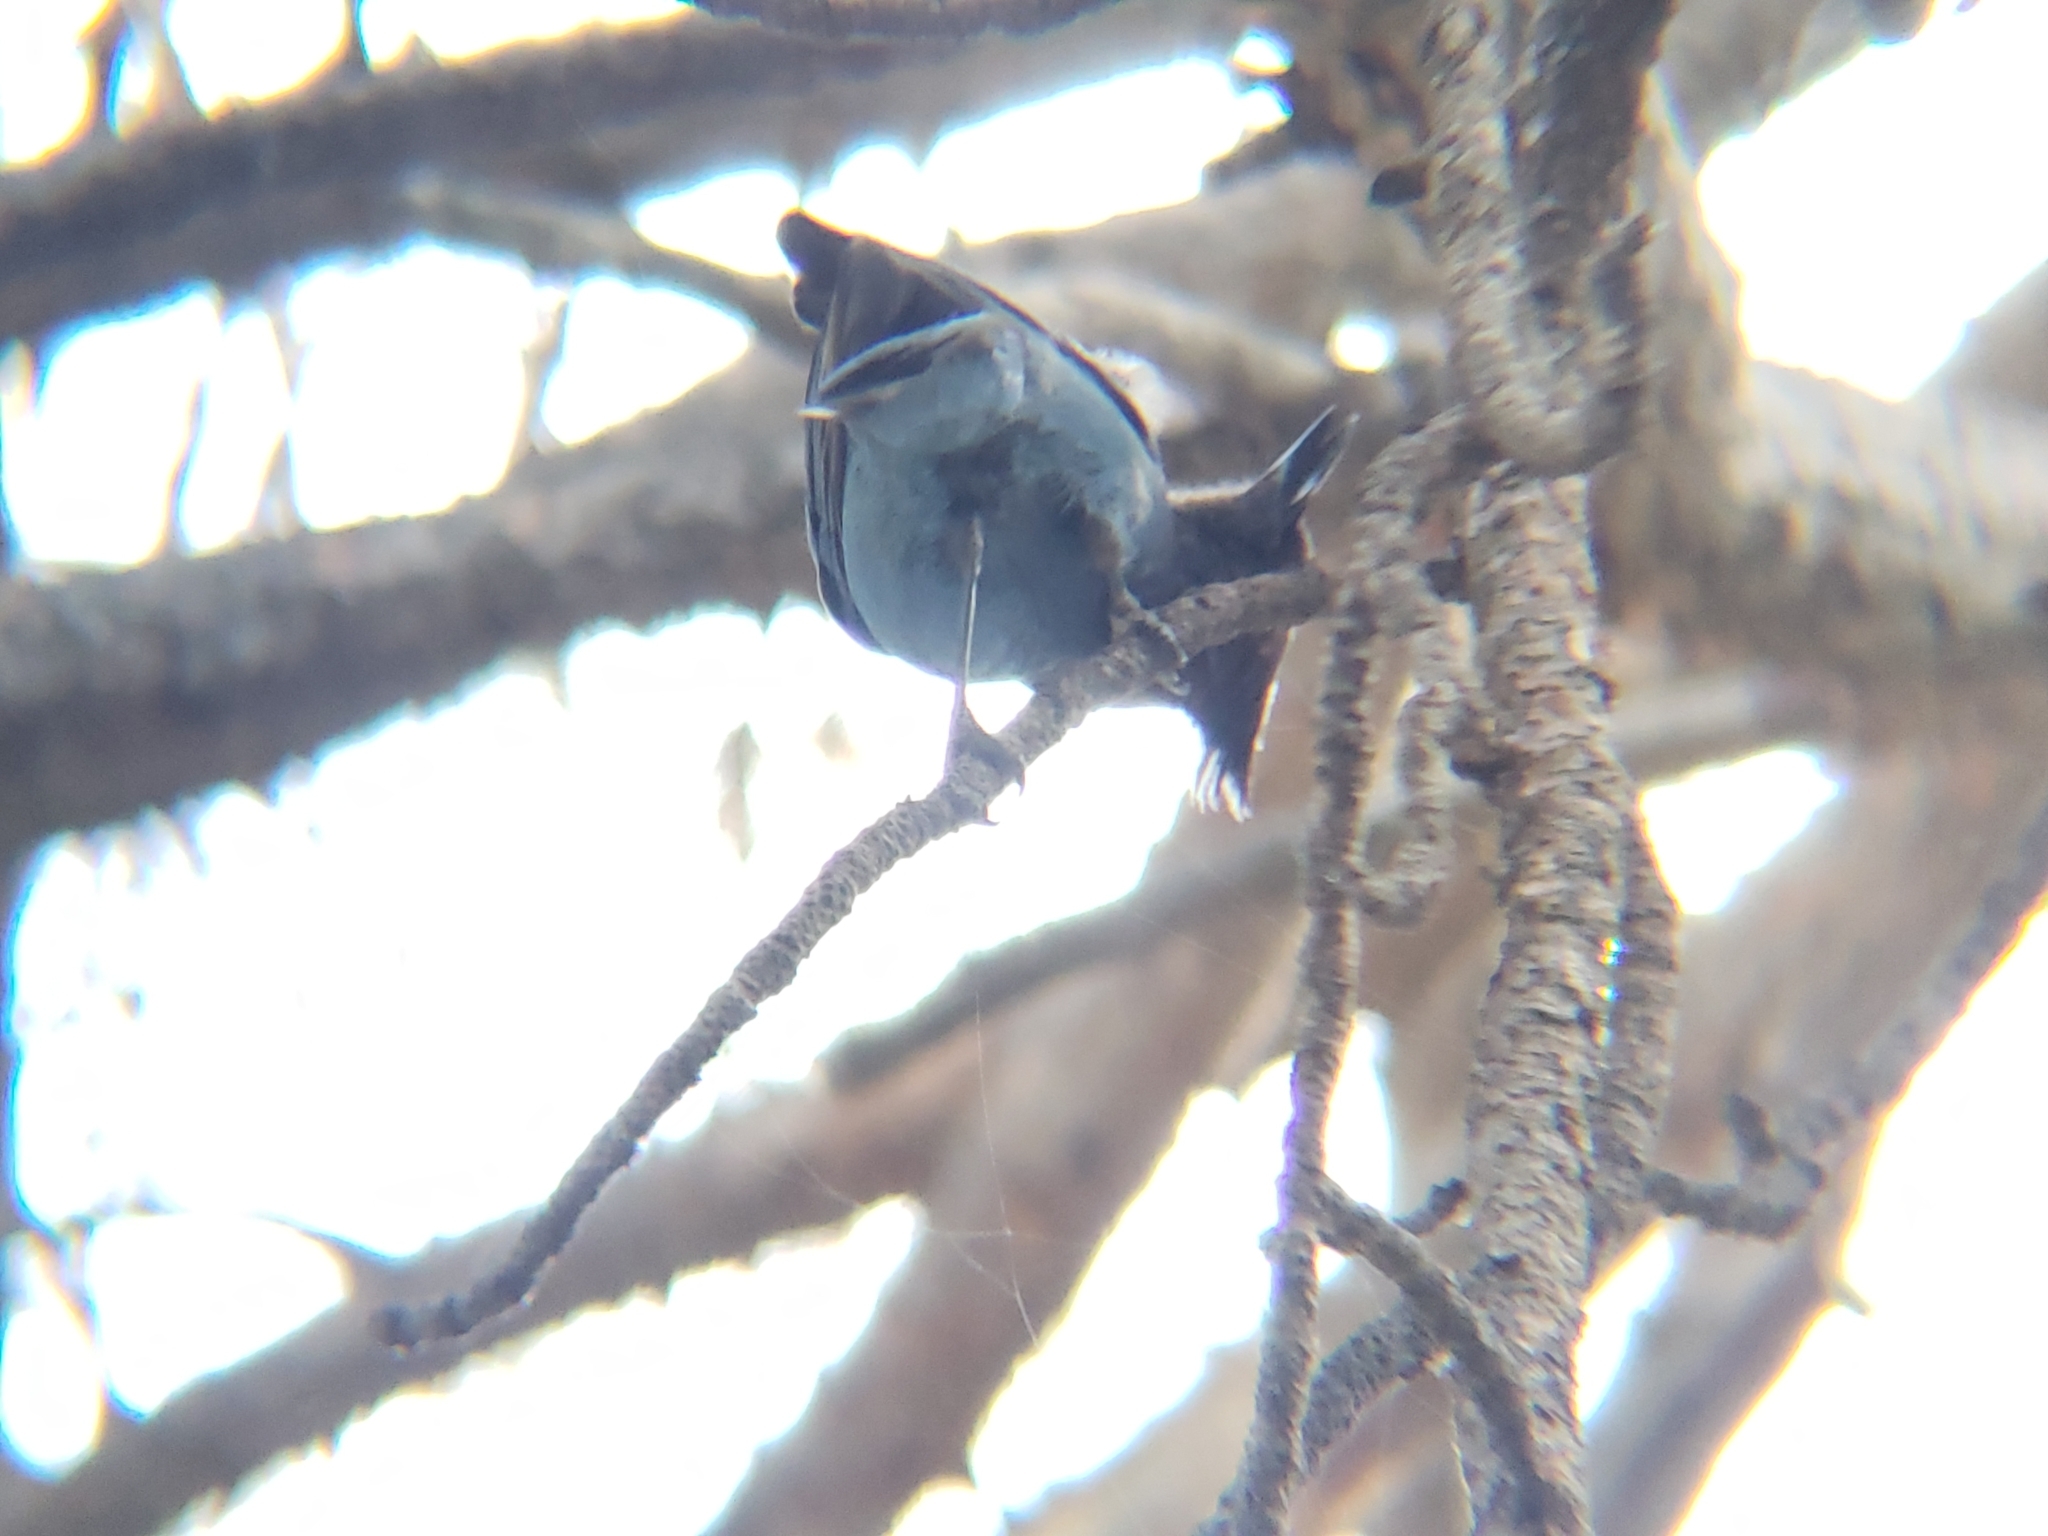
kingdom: Animalia
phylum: Chordata
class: Aves
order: Passeriformes
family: Corvidae
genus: Cyanocitta
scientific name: Cyanocitta stelleri
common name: Steller's jay
